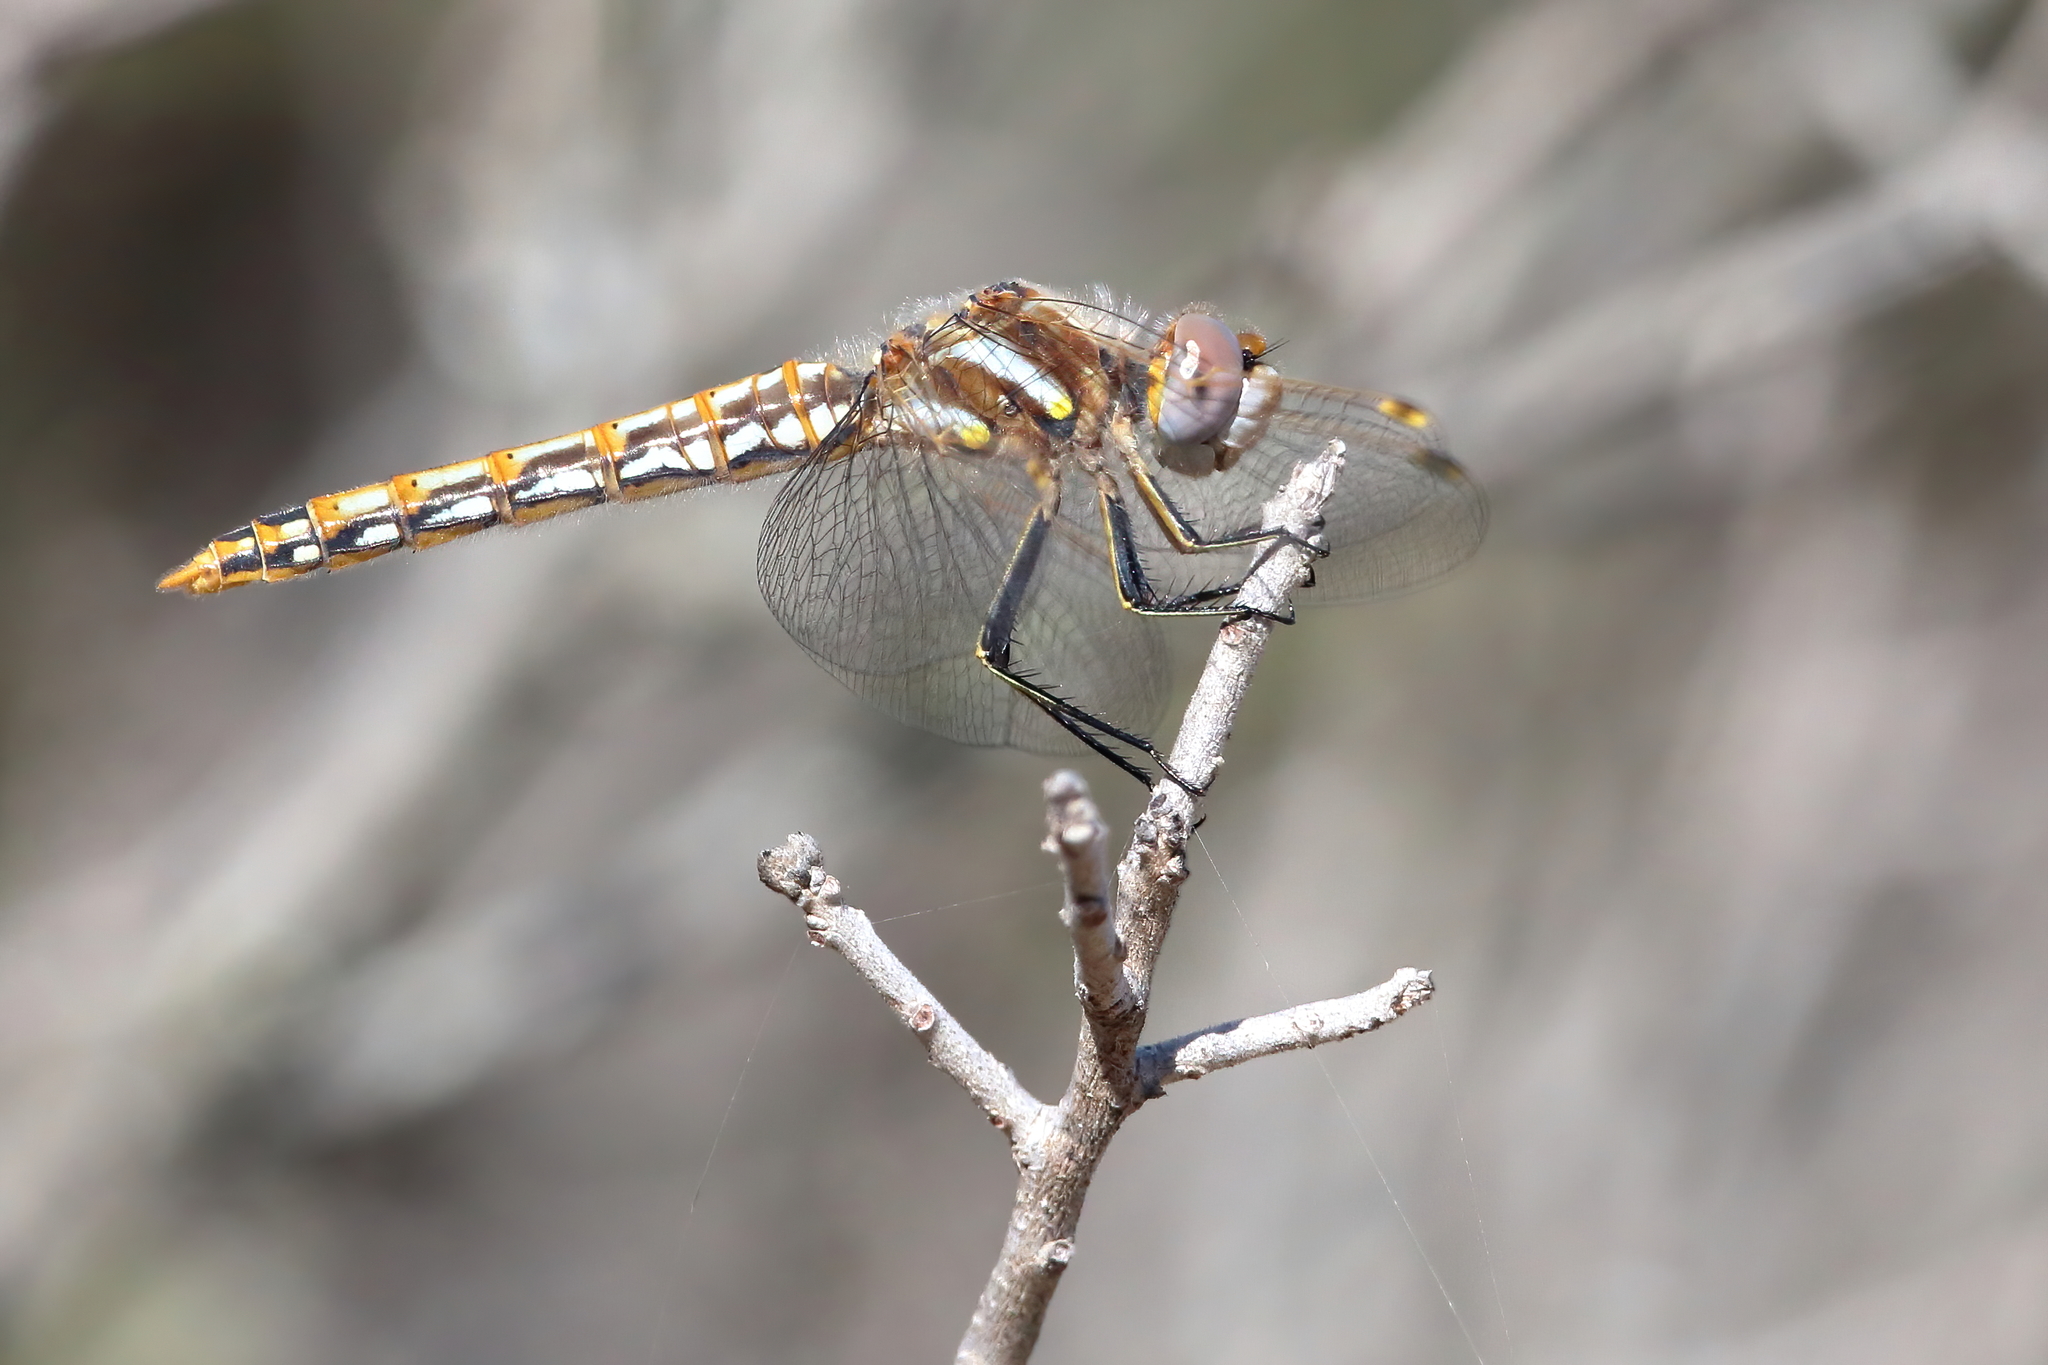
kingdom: Animalia
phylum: Arthropoda
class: Insecta
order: Odonata
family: Libellulidae
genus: Sympetrum
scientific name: Sympetrum corruptum
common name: Variegated meadowhawk
